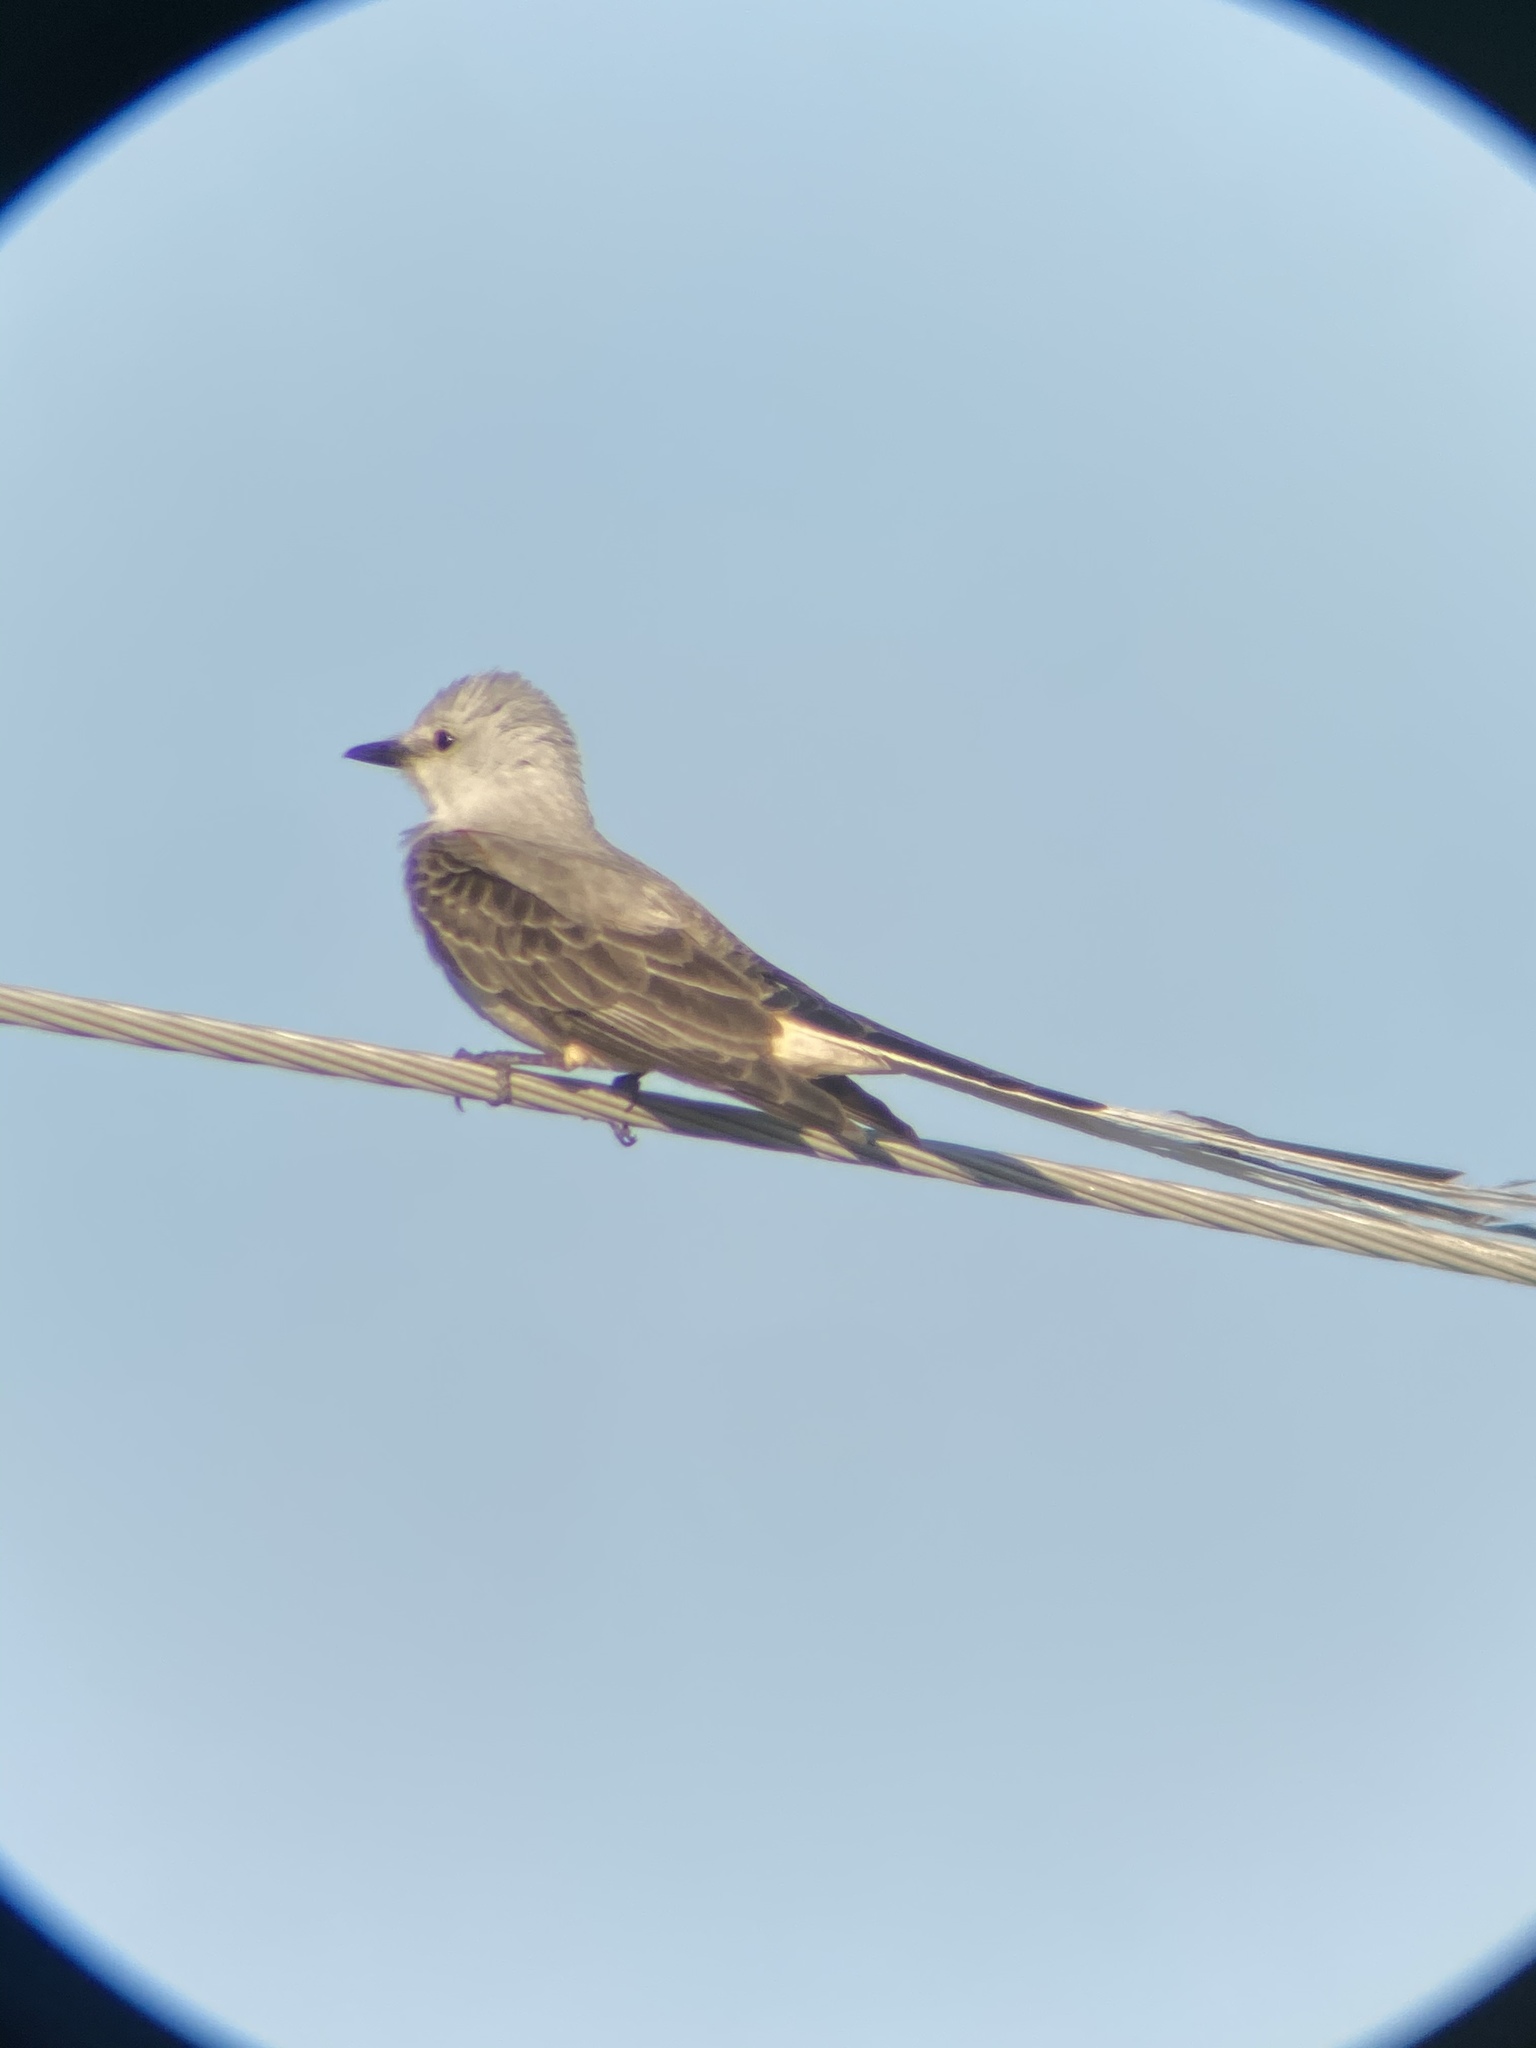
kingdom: Animalia
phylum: Chordata
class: Aves
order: Passeriformes
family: Tyrannidae
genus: Tyrannus
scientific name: Tyrannus forficatus
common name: Scissor-tailed flycatcher
